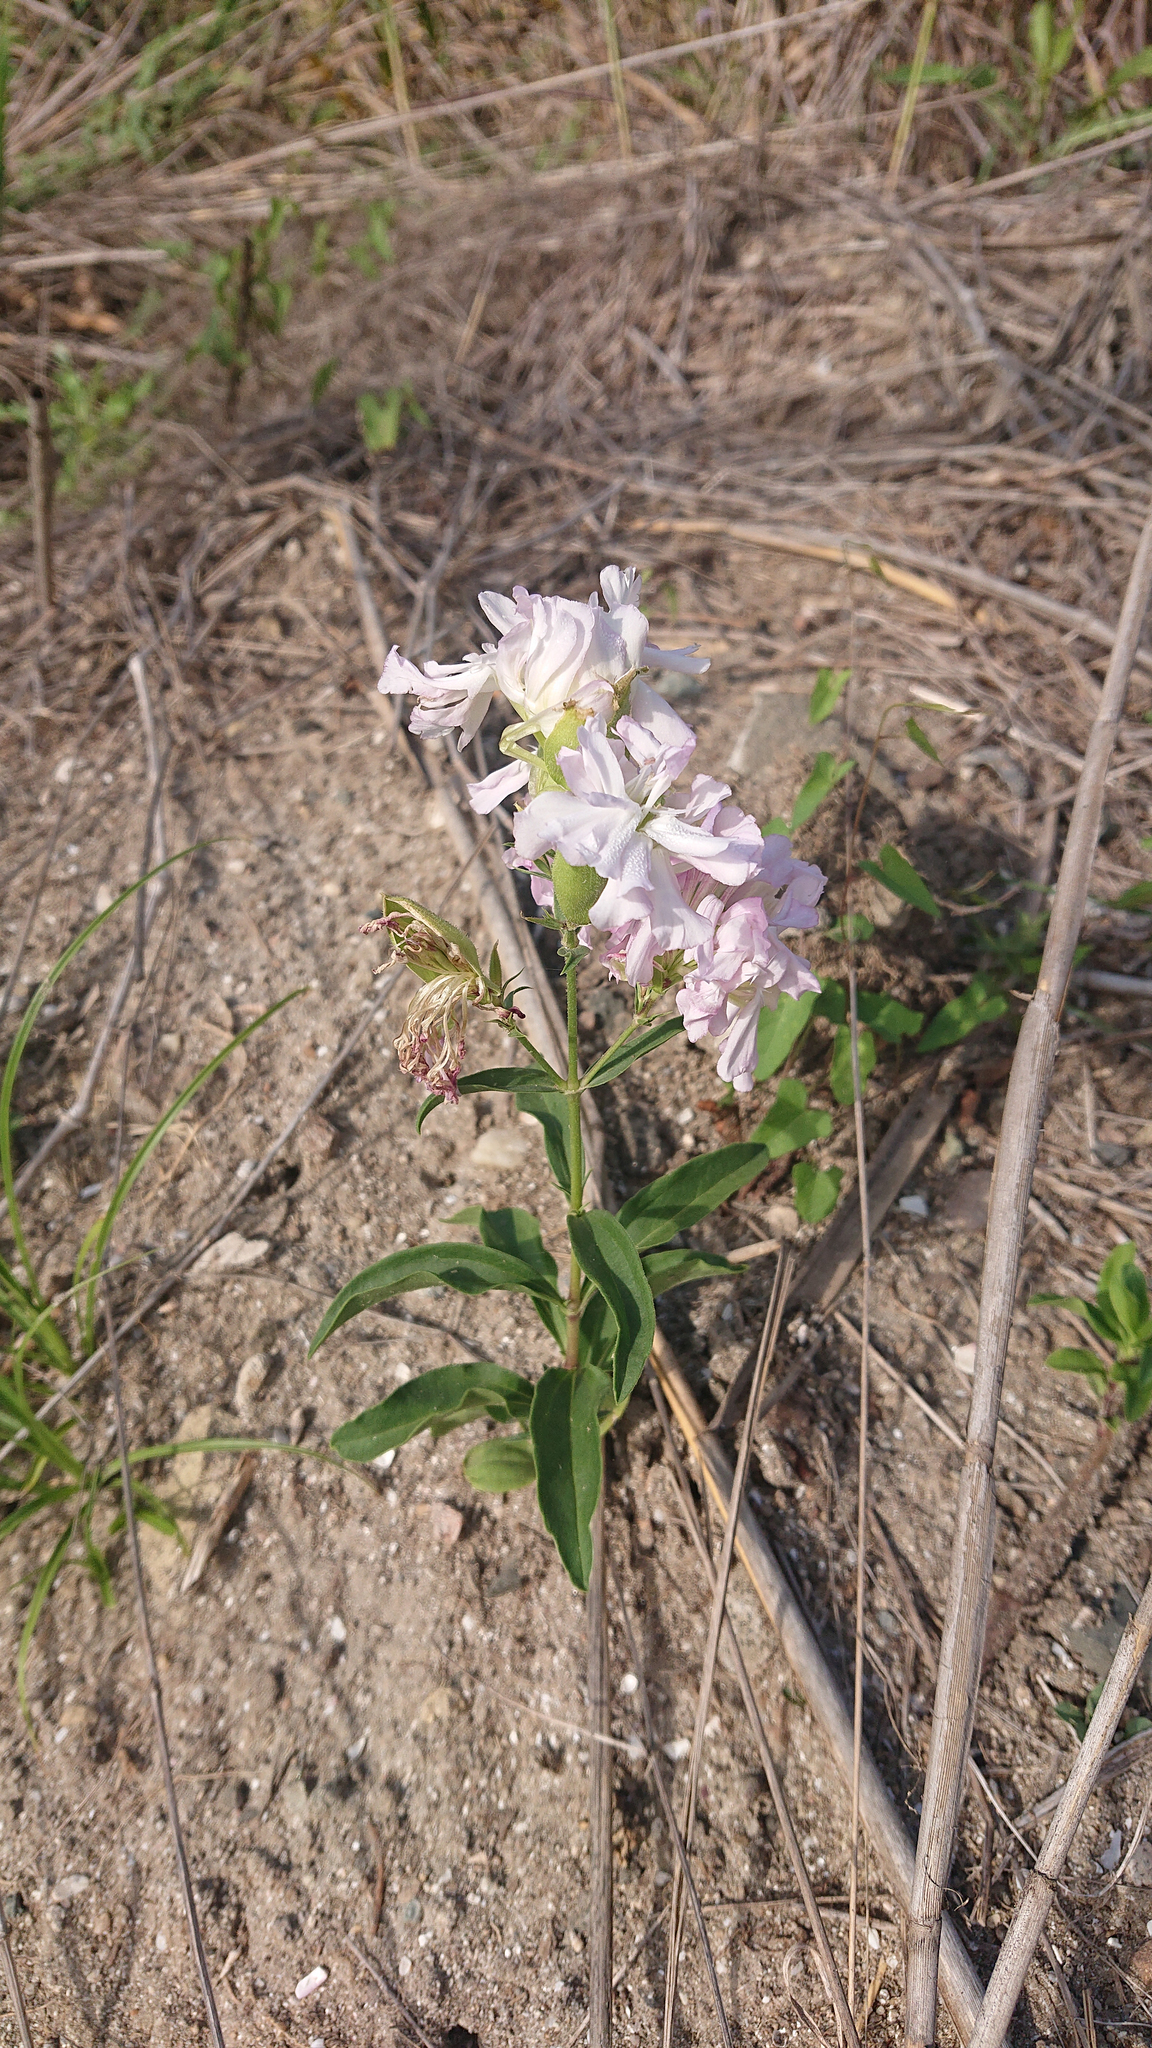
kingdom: Plantae
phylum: Tracheophyta
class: Magnoliopsida
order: Caryophyllales
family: Caryophyllaceae
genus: Saponaria
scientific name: Saponaria officinalis
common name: Soapwort
